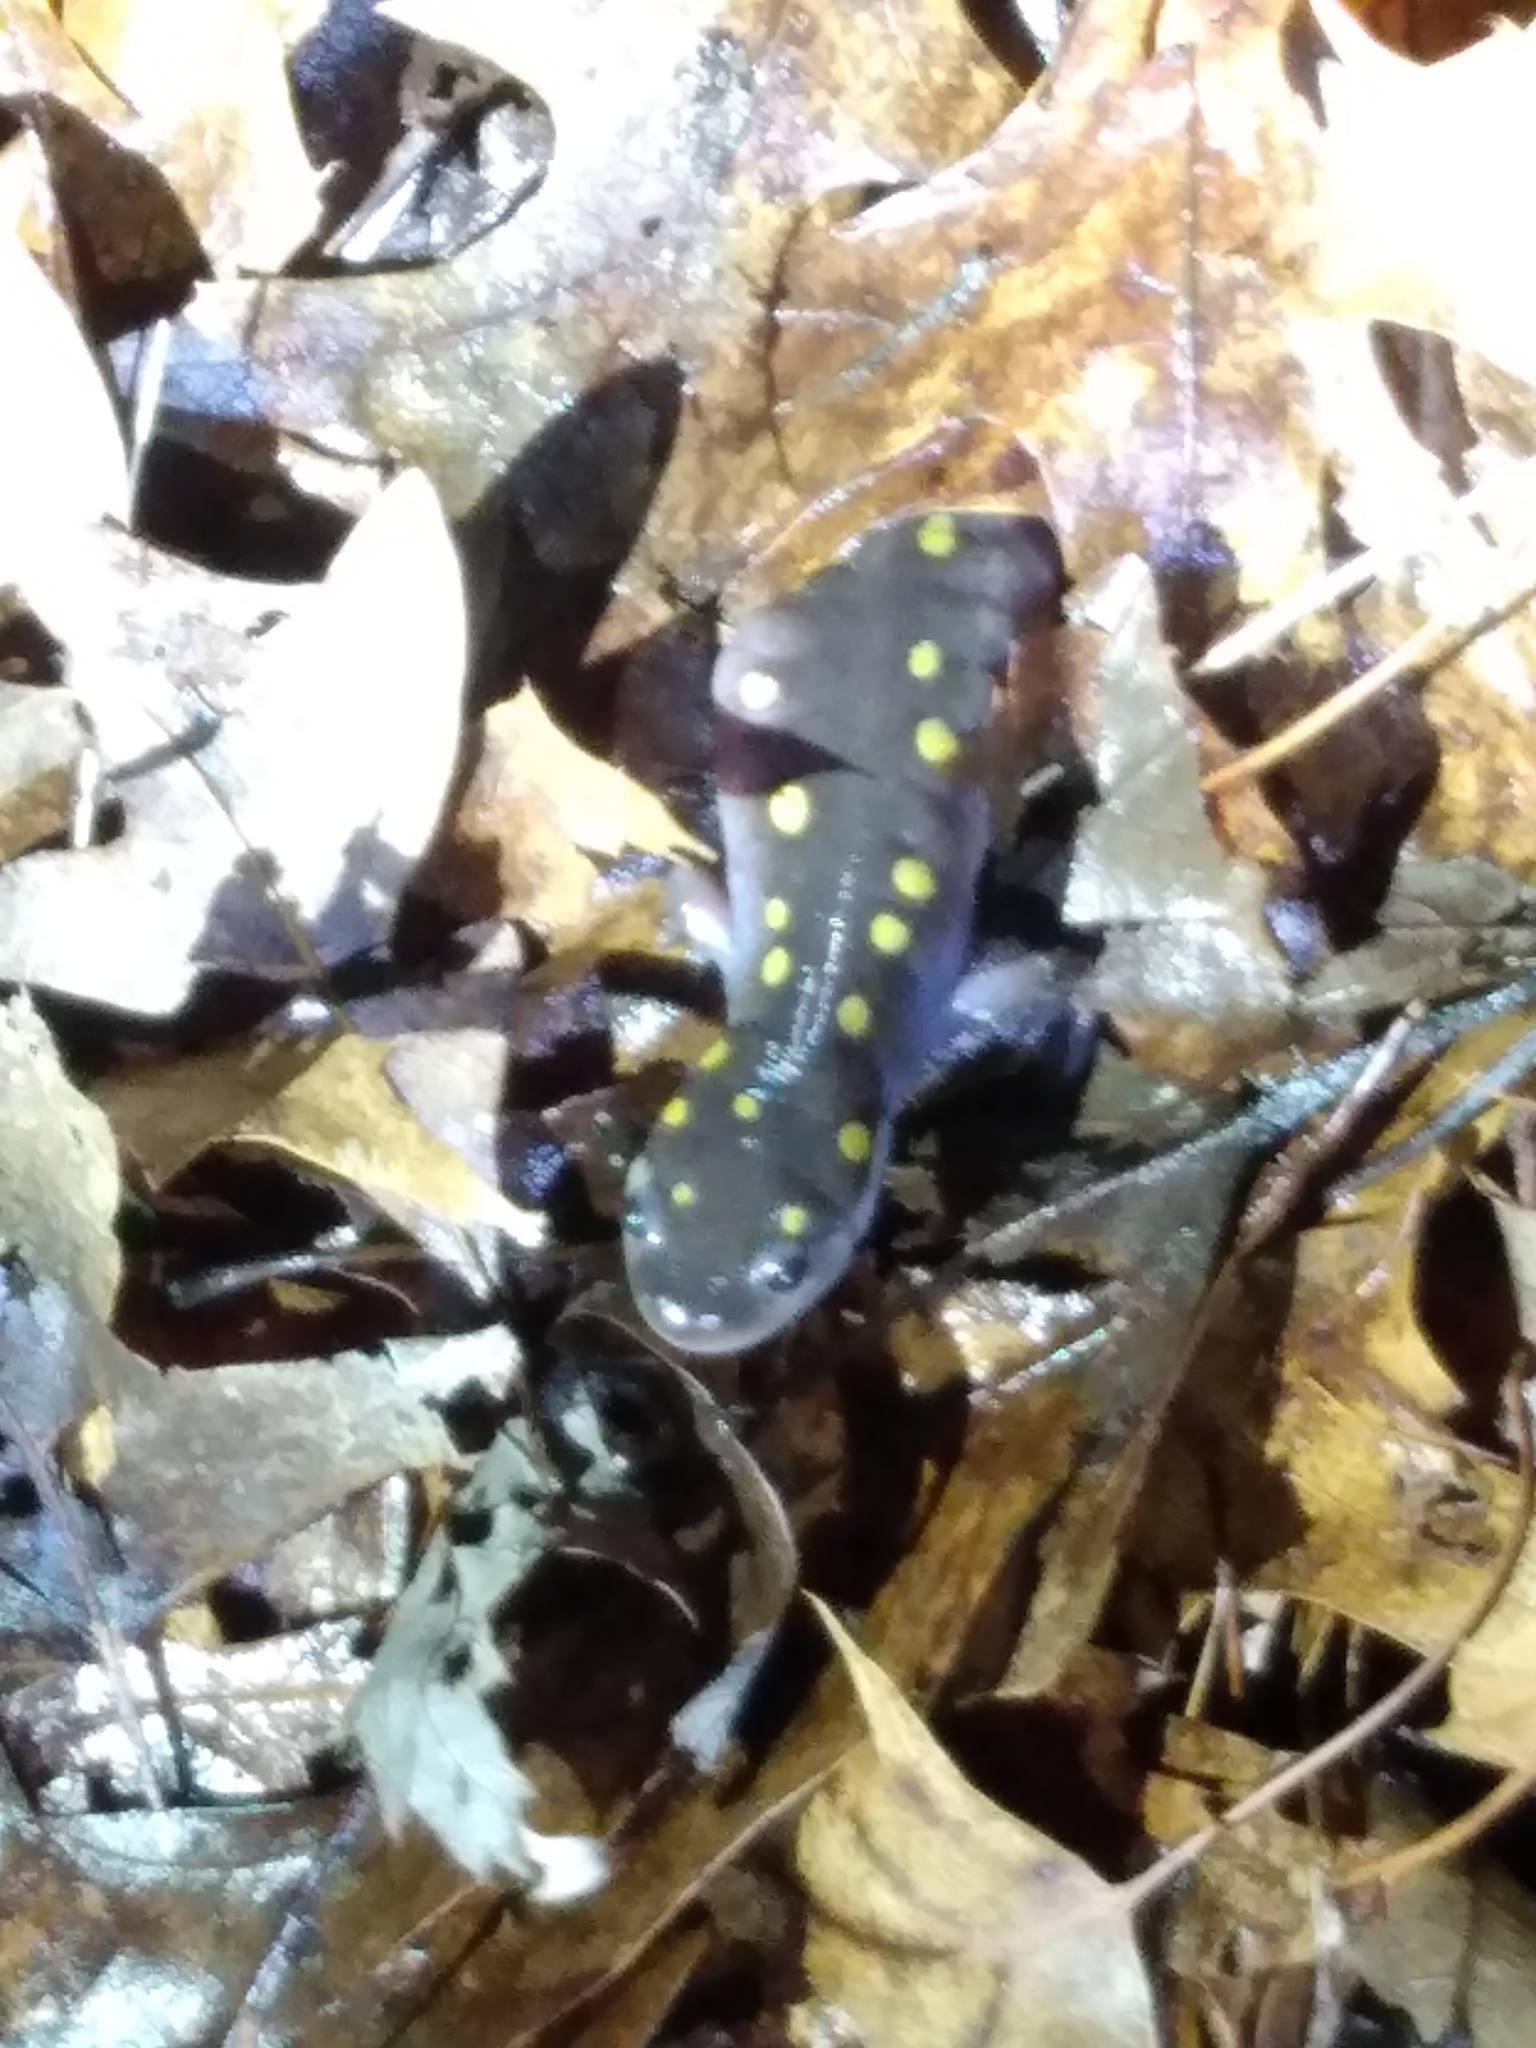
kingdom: Animalia
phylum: Chordata
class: Amphibia
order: Caudata
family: Ambystomatidae
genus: Ambystoma
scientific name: Ambystoma maculatum
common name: Spotted salamander
